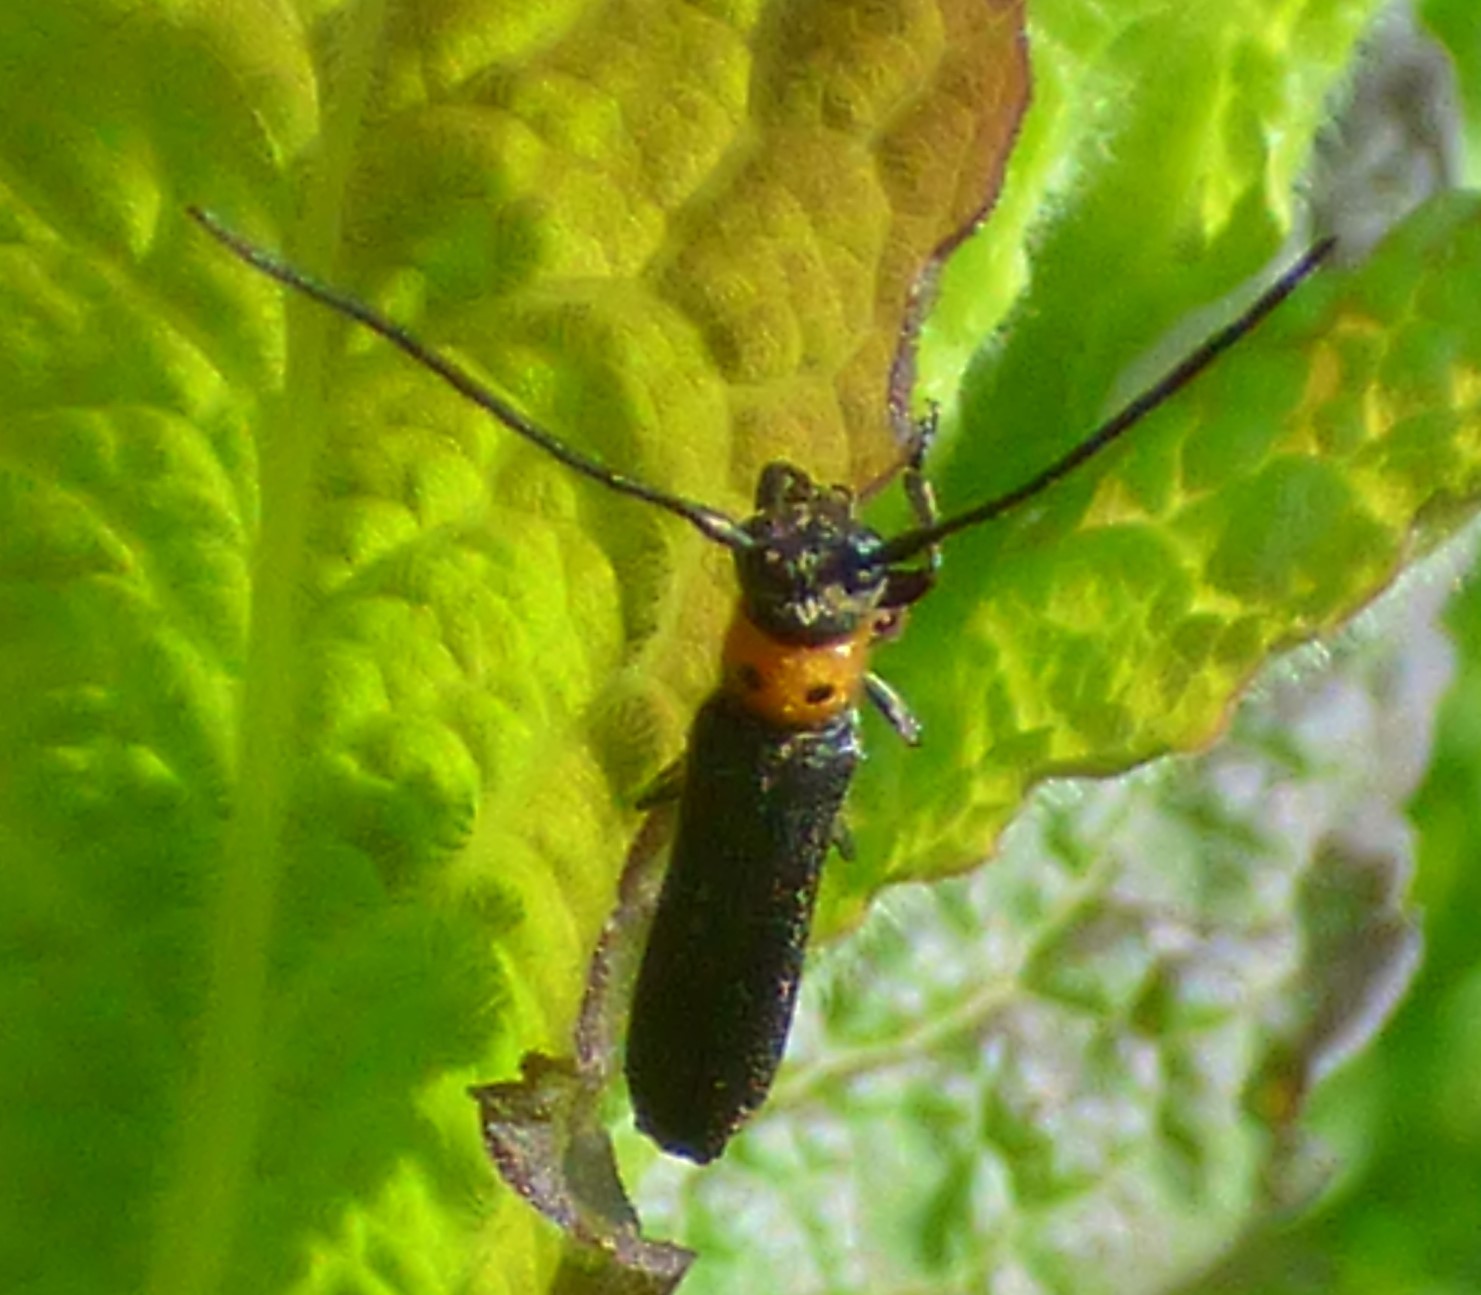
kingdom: Animalia
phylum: Arthropoda
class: Insecta
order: Coleoptera
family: Cerambycidae
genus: Oberea
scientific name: Oberea perspicillata
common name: Raspberry cane borer
